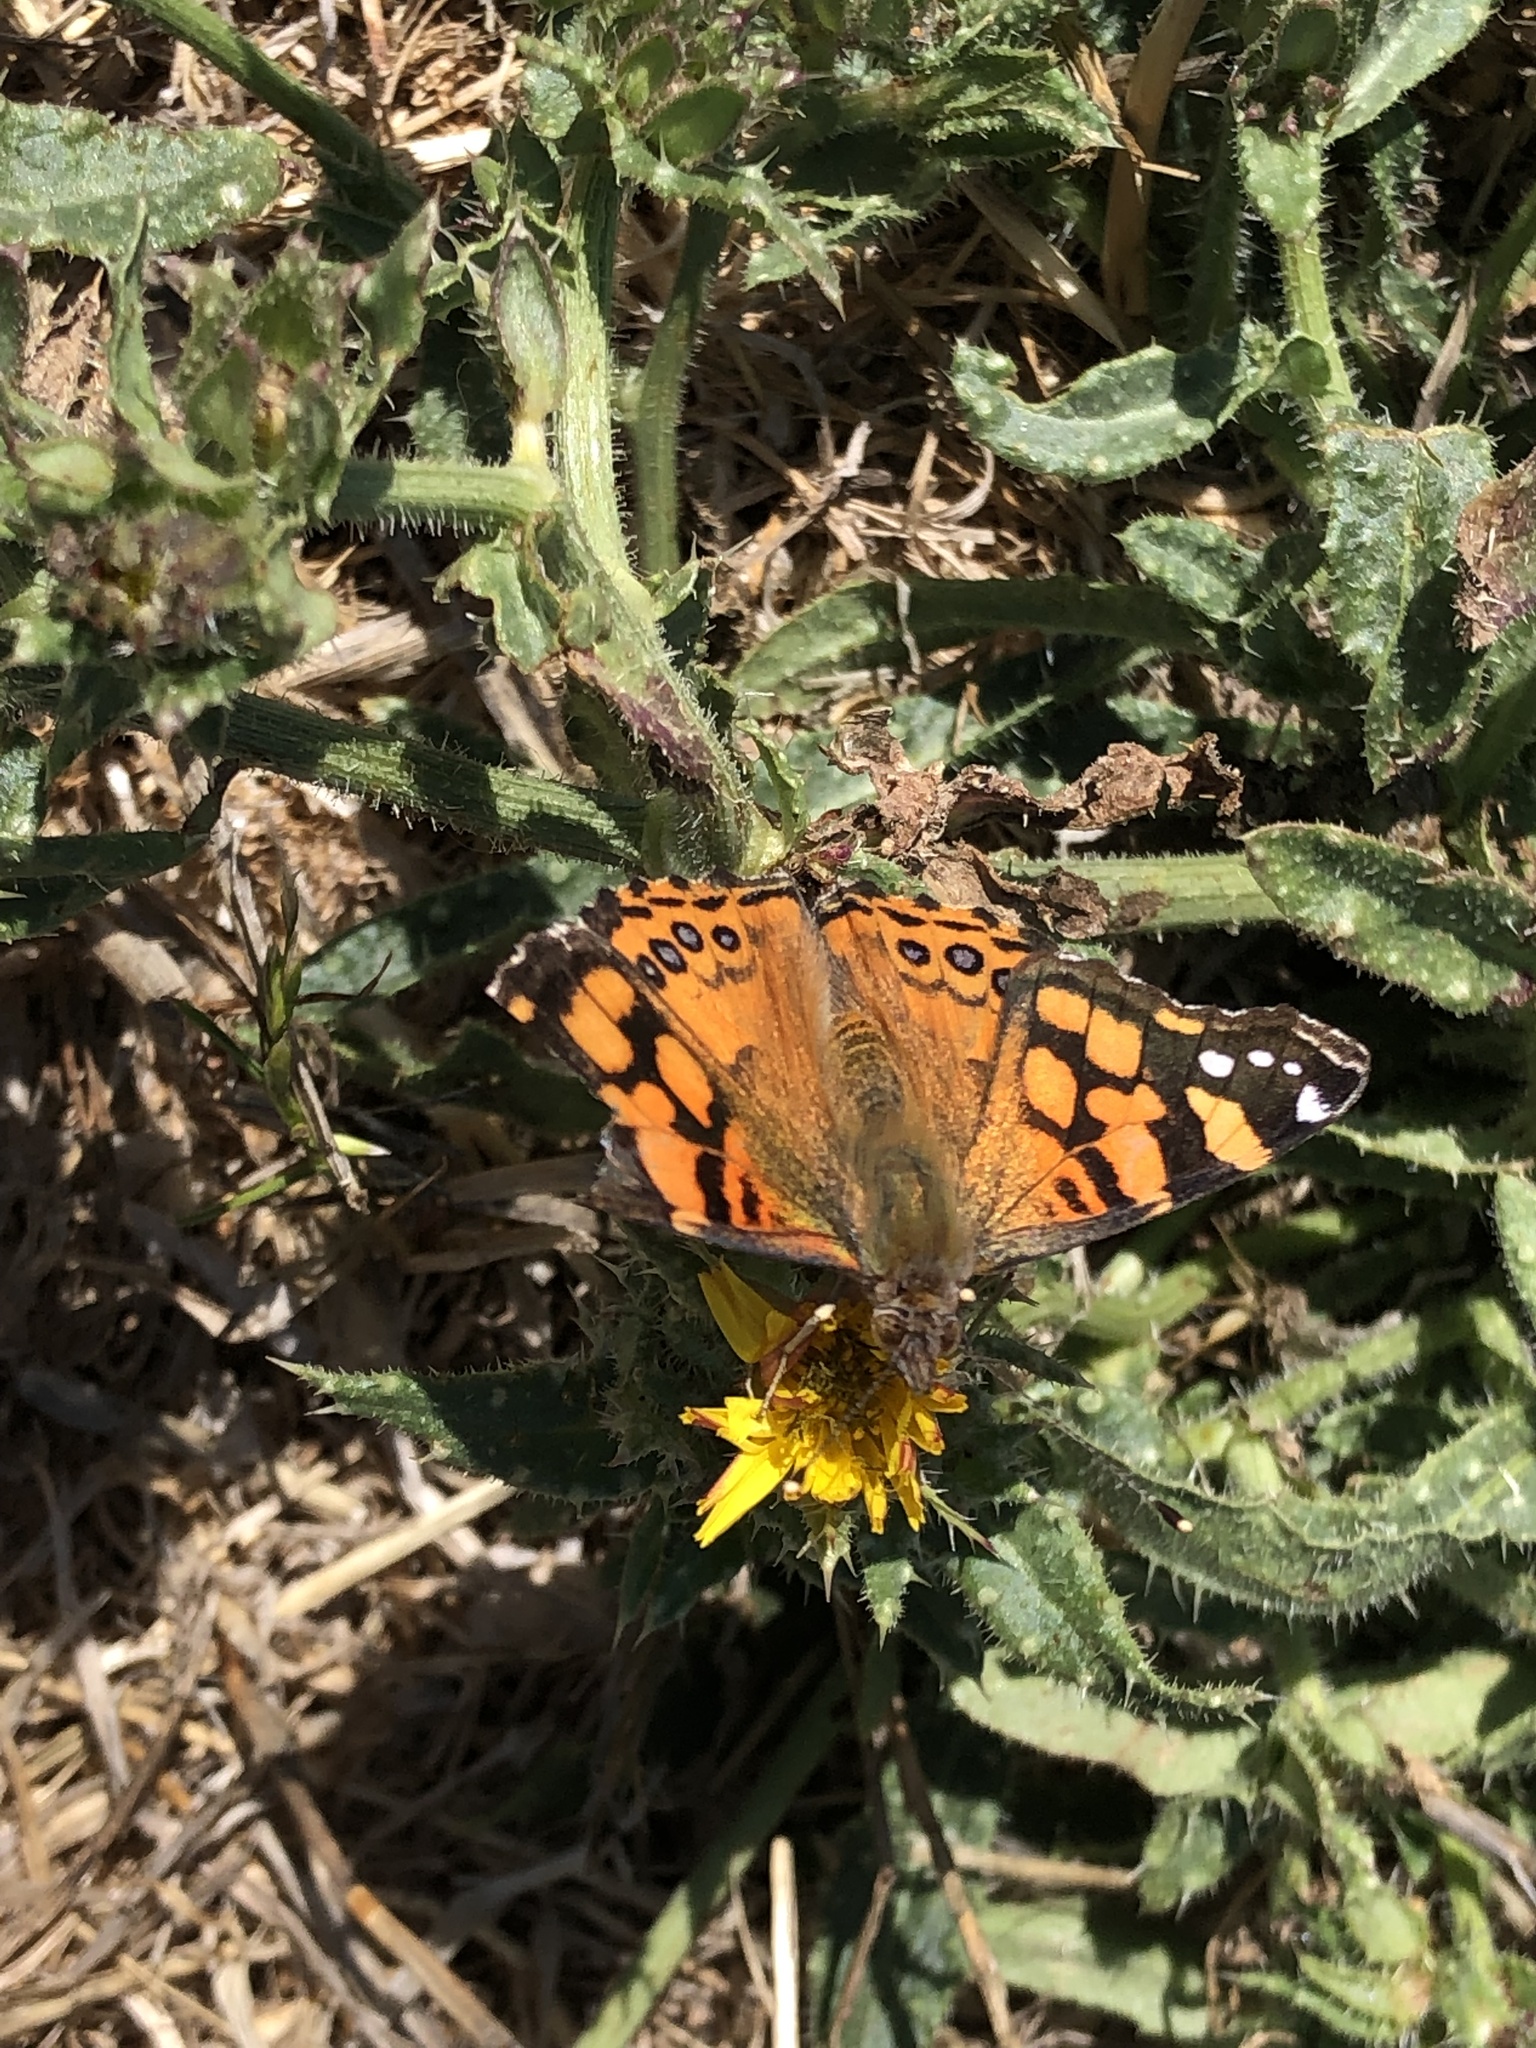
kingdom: Animalia
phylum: Arthropoda
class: Insecta
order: Lepidoptera
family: Nymphalidae
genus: Vanessa
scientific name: Vanessa annabella
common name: West coast lady
